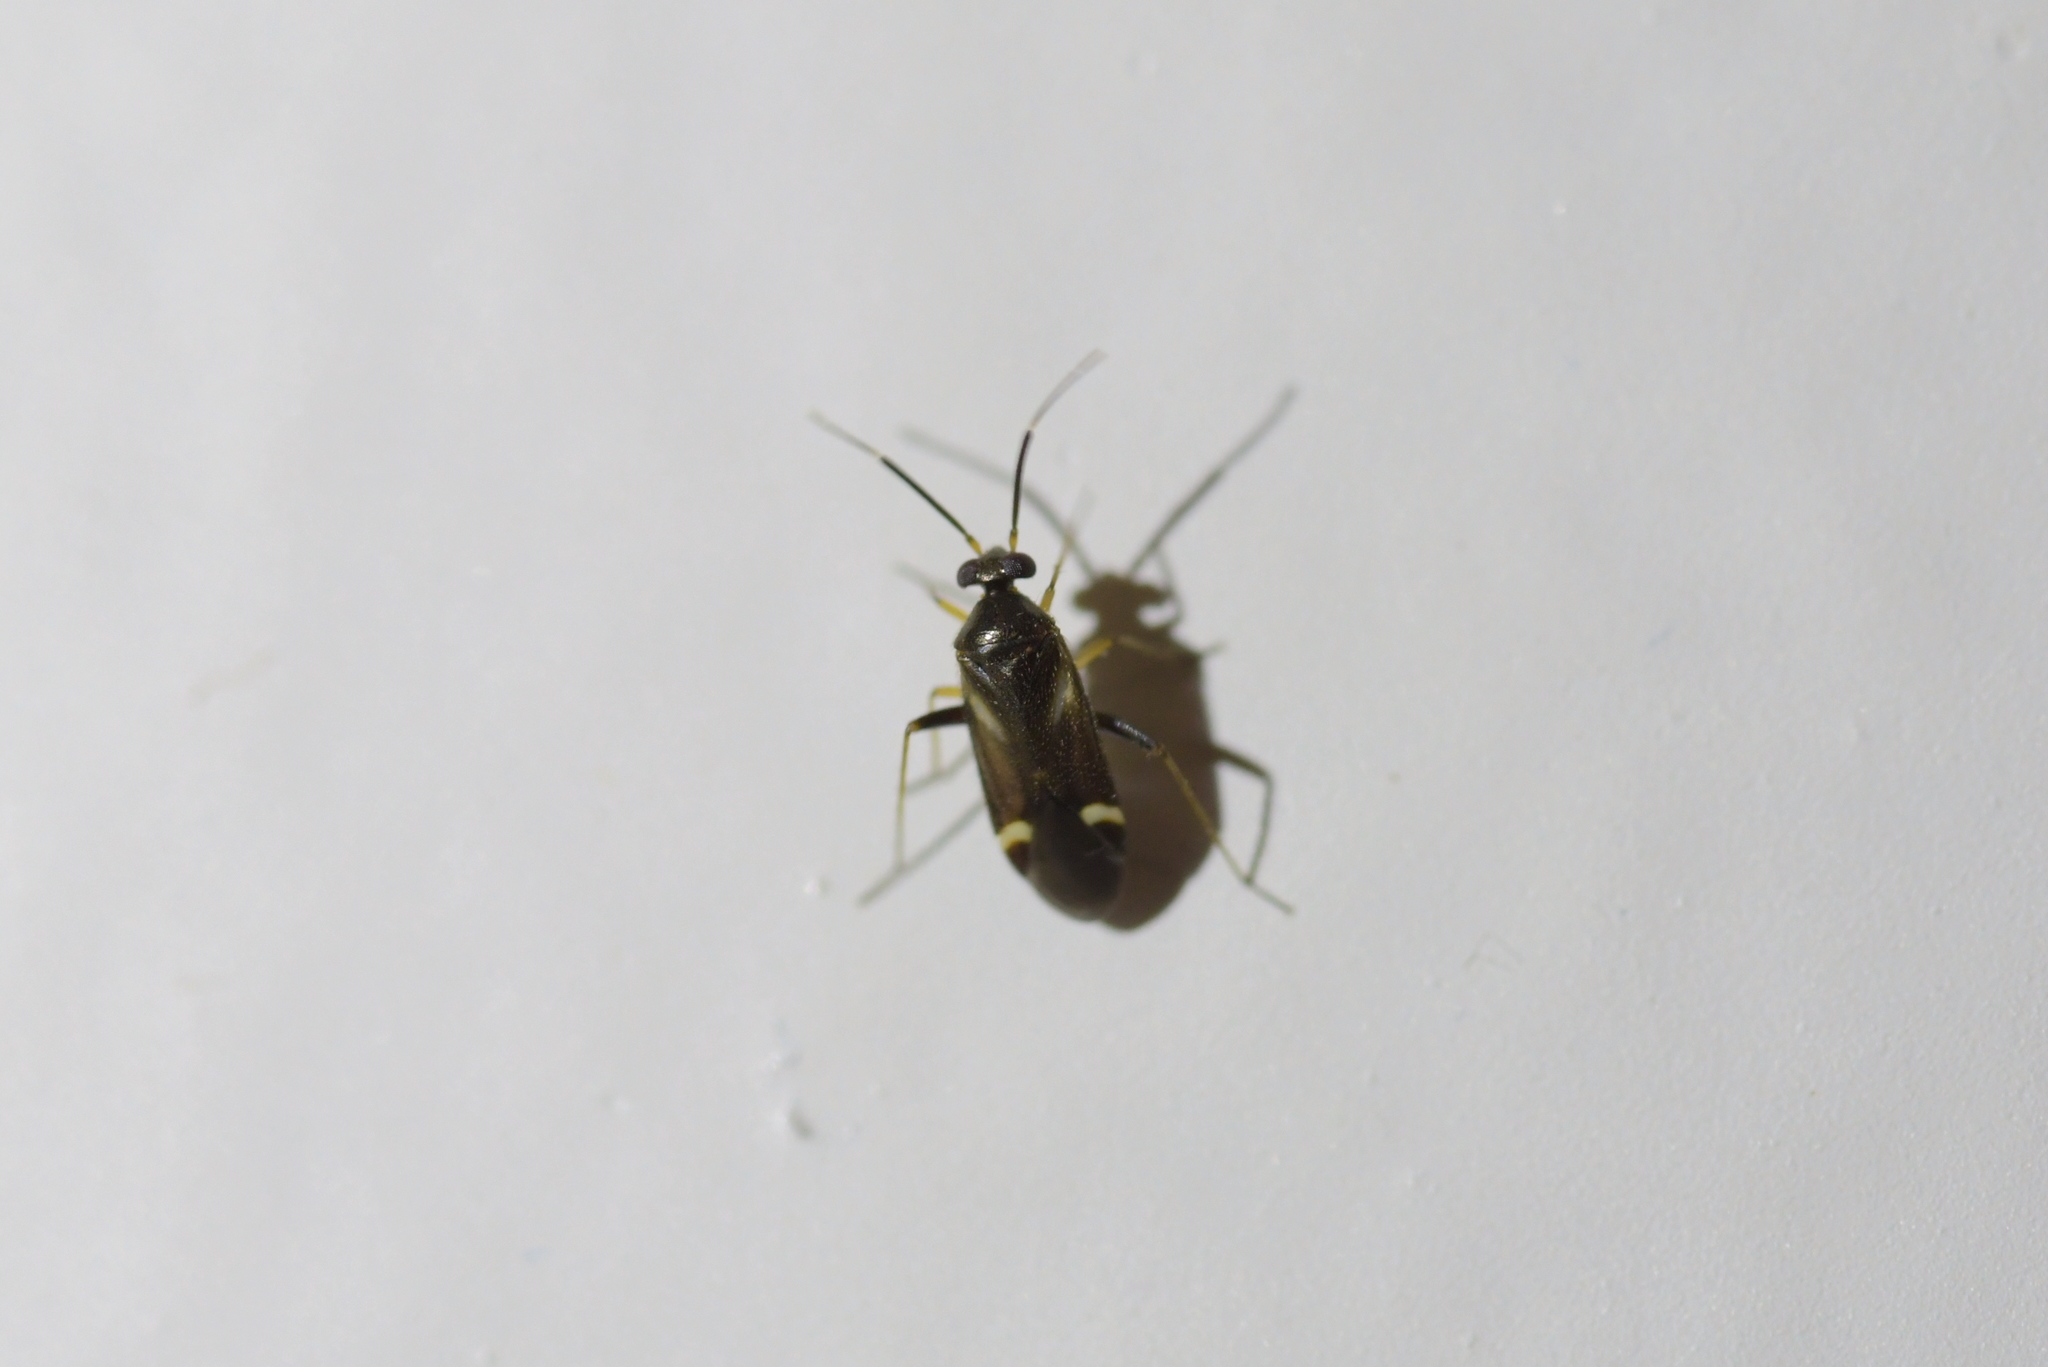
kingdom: Animalia
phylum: Arthropoda
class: Insecta
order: Hemiptera
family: Miridae
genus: Ausejanus
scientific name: Ausejanus albisignatus
